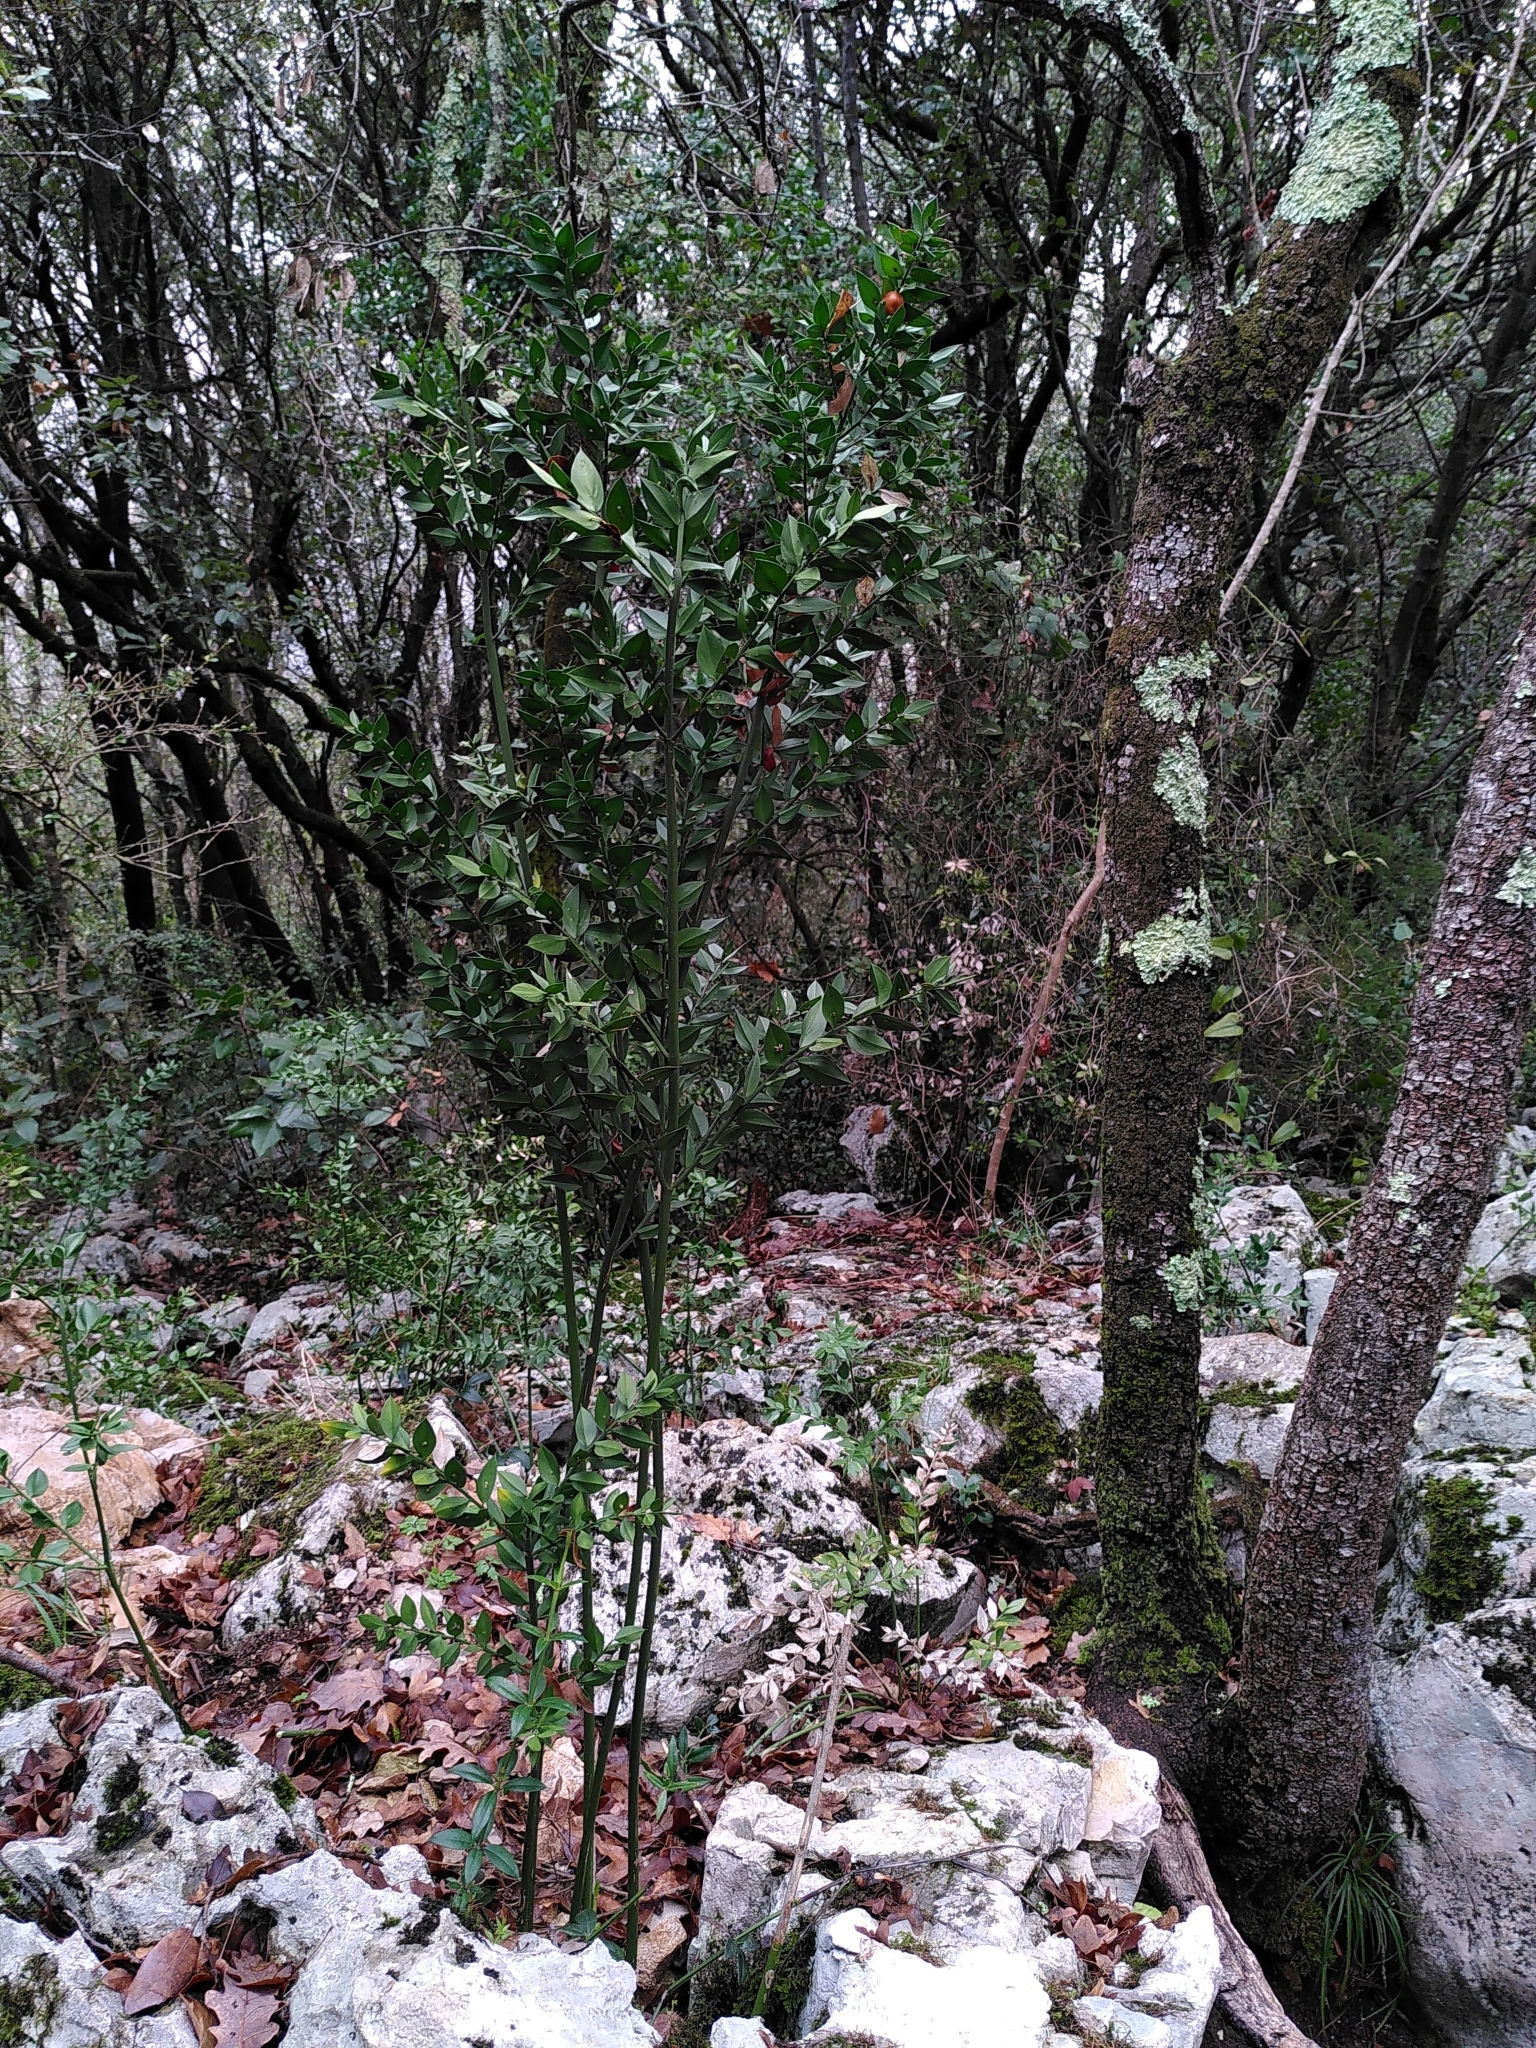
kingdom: Plantae
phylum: Tracheophyta
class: Liliopsida
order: Asparagales
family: Asparagaceae
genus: Ruscus
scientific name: Ruscus aculeatus
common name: Butcher's-broom
